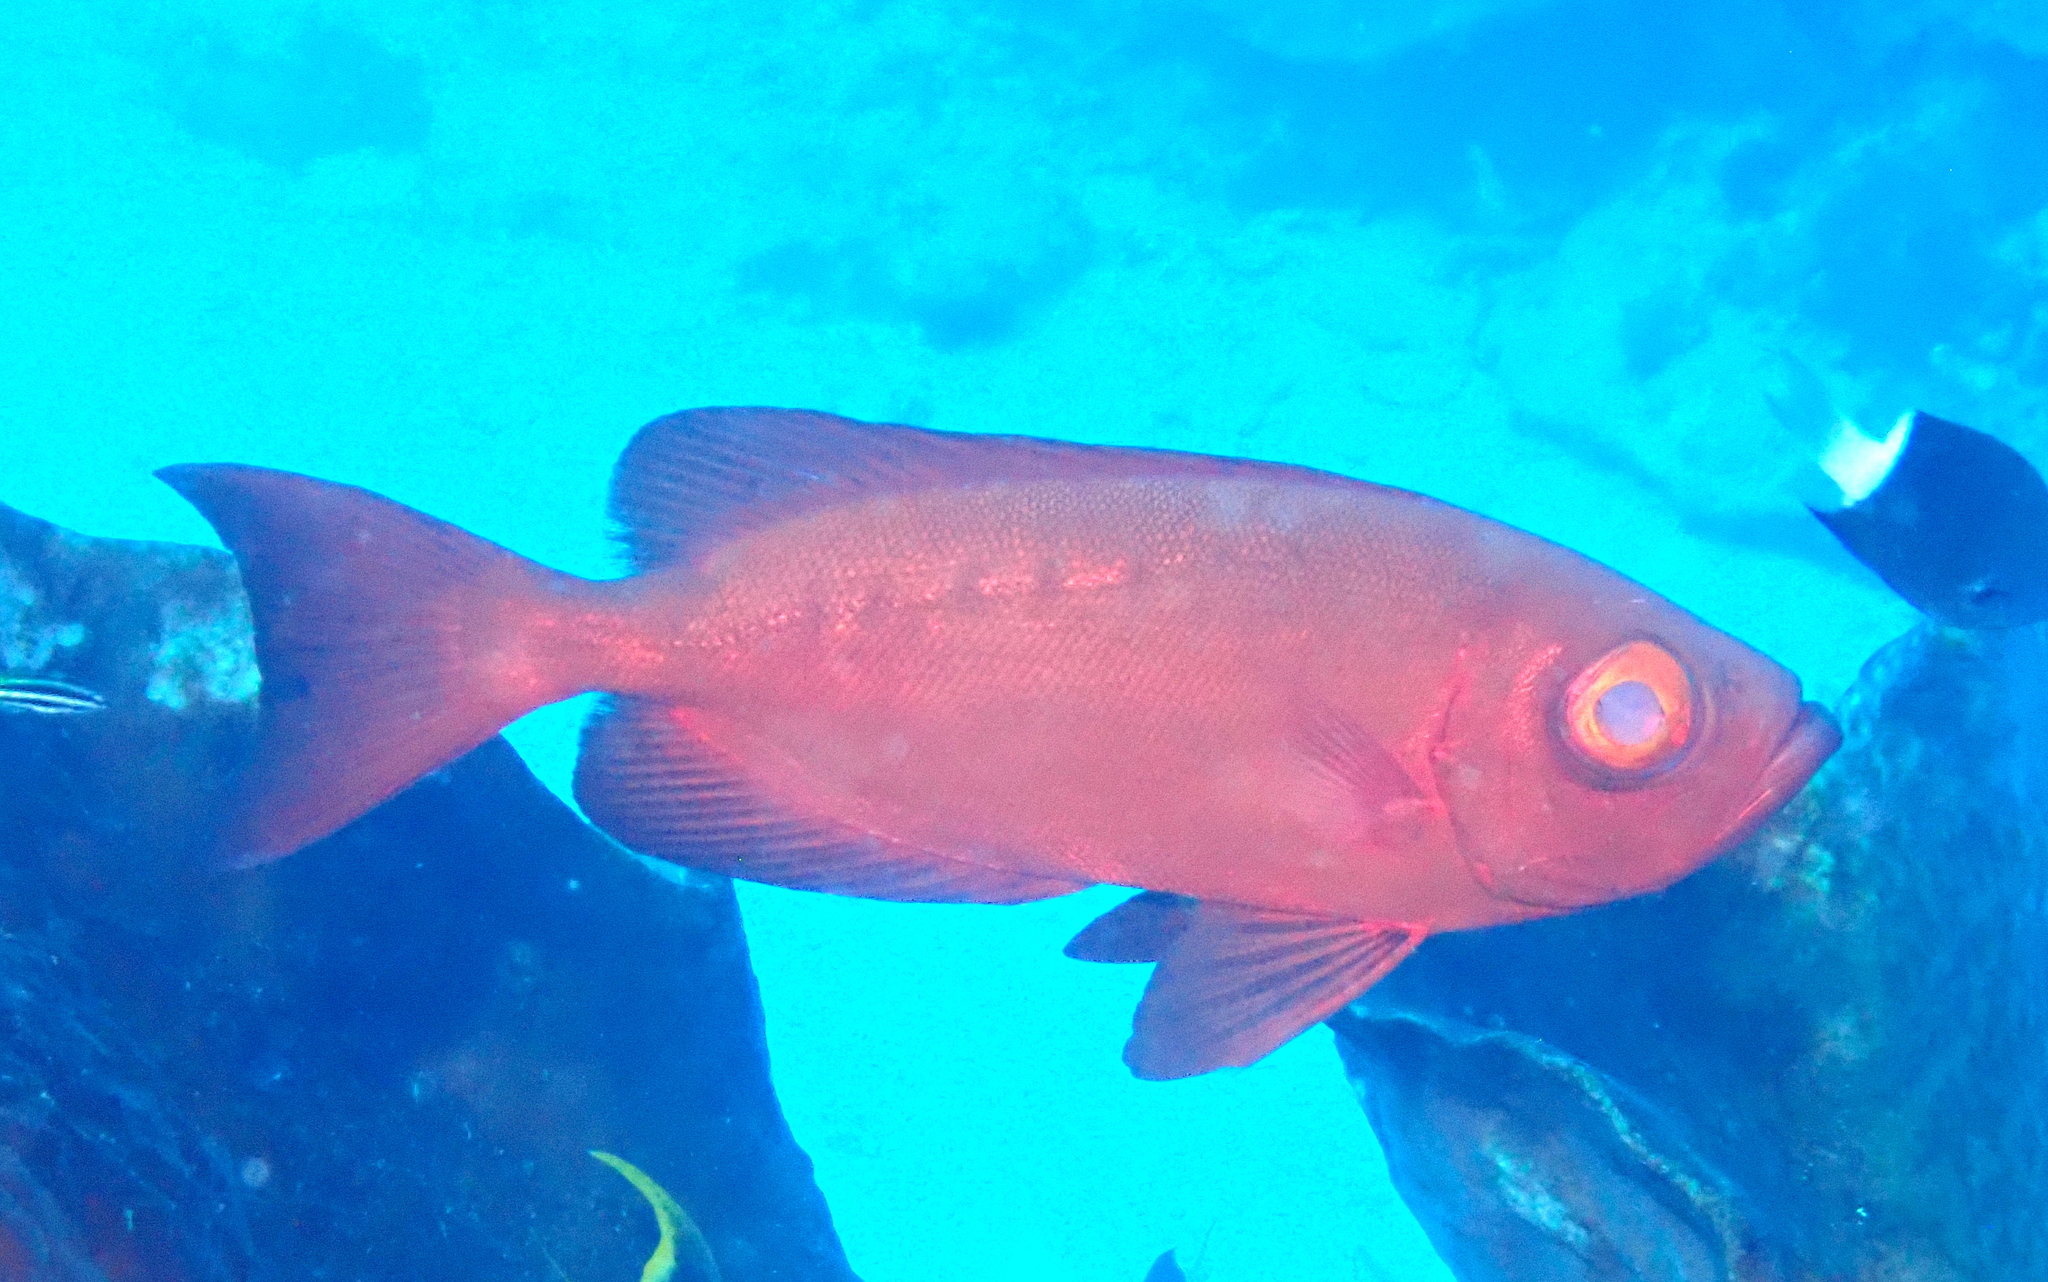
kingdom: Animalia
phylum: Chordata
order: Perciformes
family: Priacanthidae
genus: Priacanthus
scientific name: Priacanthus hamrur
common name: Moontail bullseye
